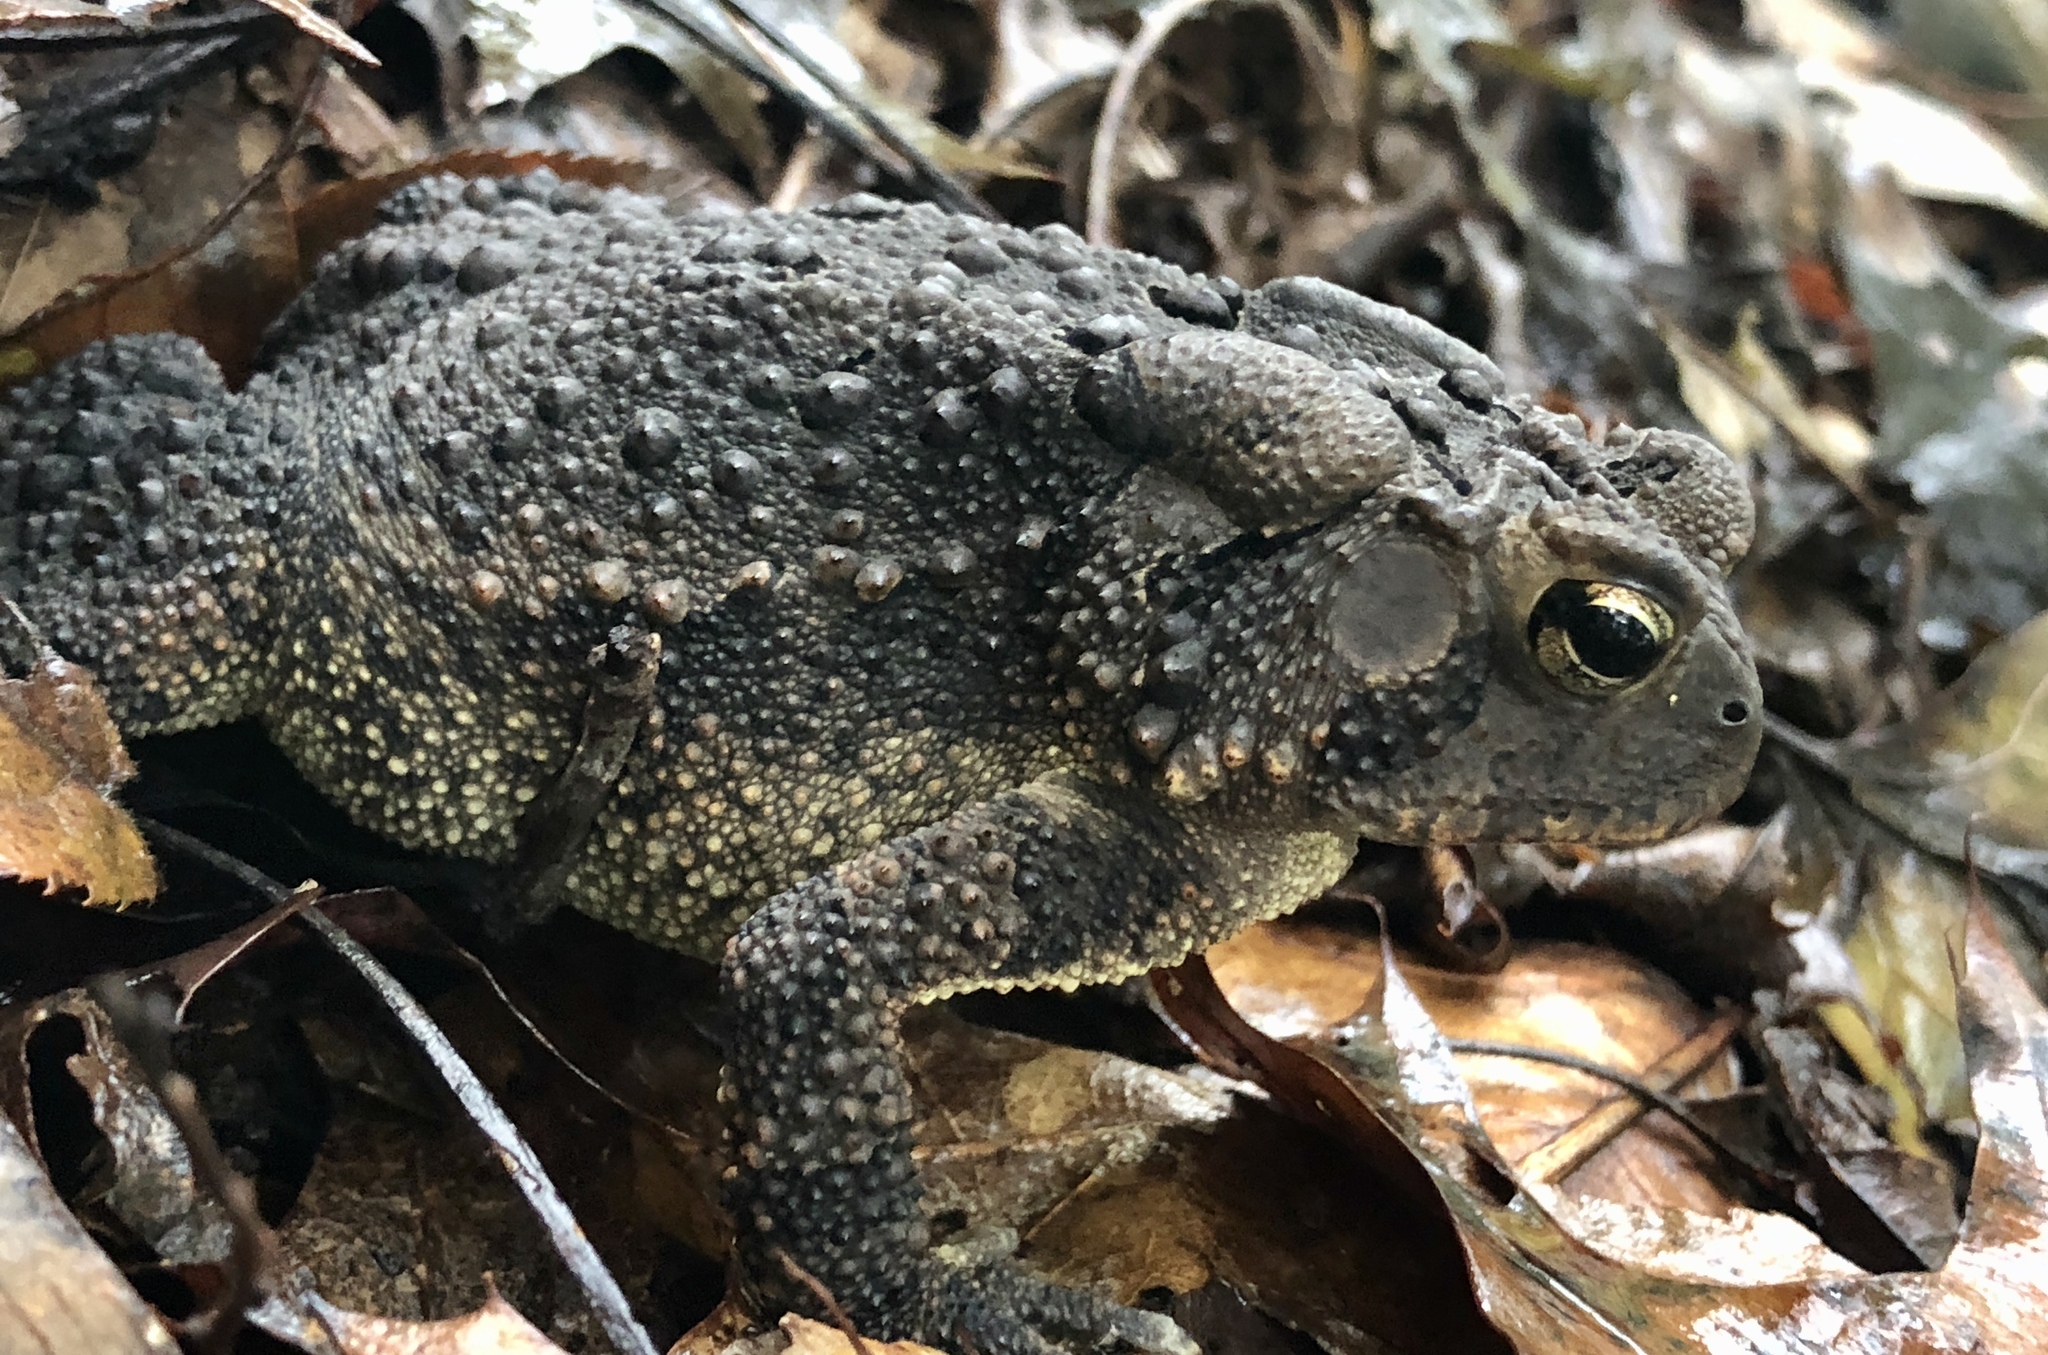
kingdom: Animalia
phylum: Chordata
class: Amphibia
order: Anura
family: Bufonidae
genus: Anaxyrus
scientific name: Anaxyrus americanus
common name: American toad
